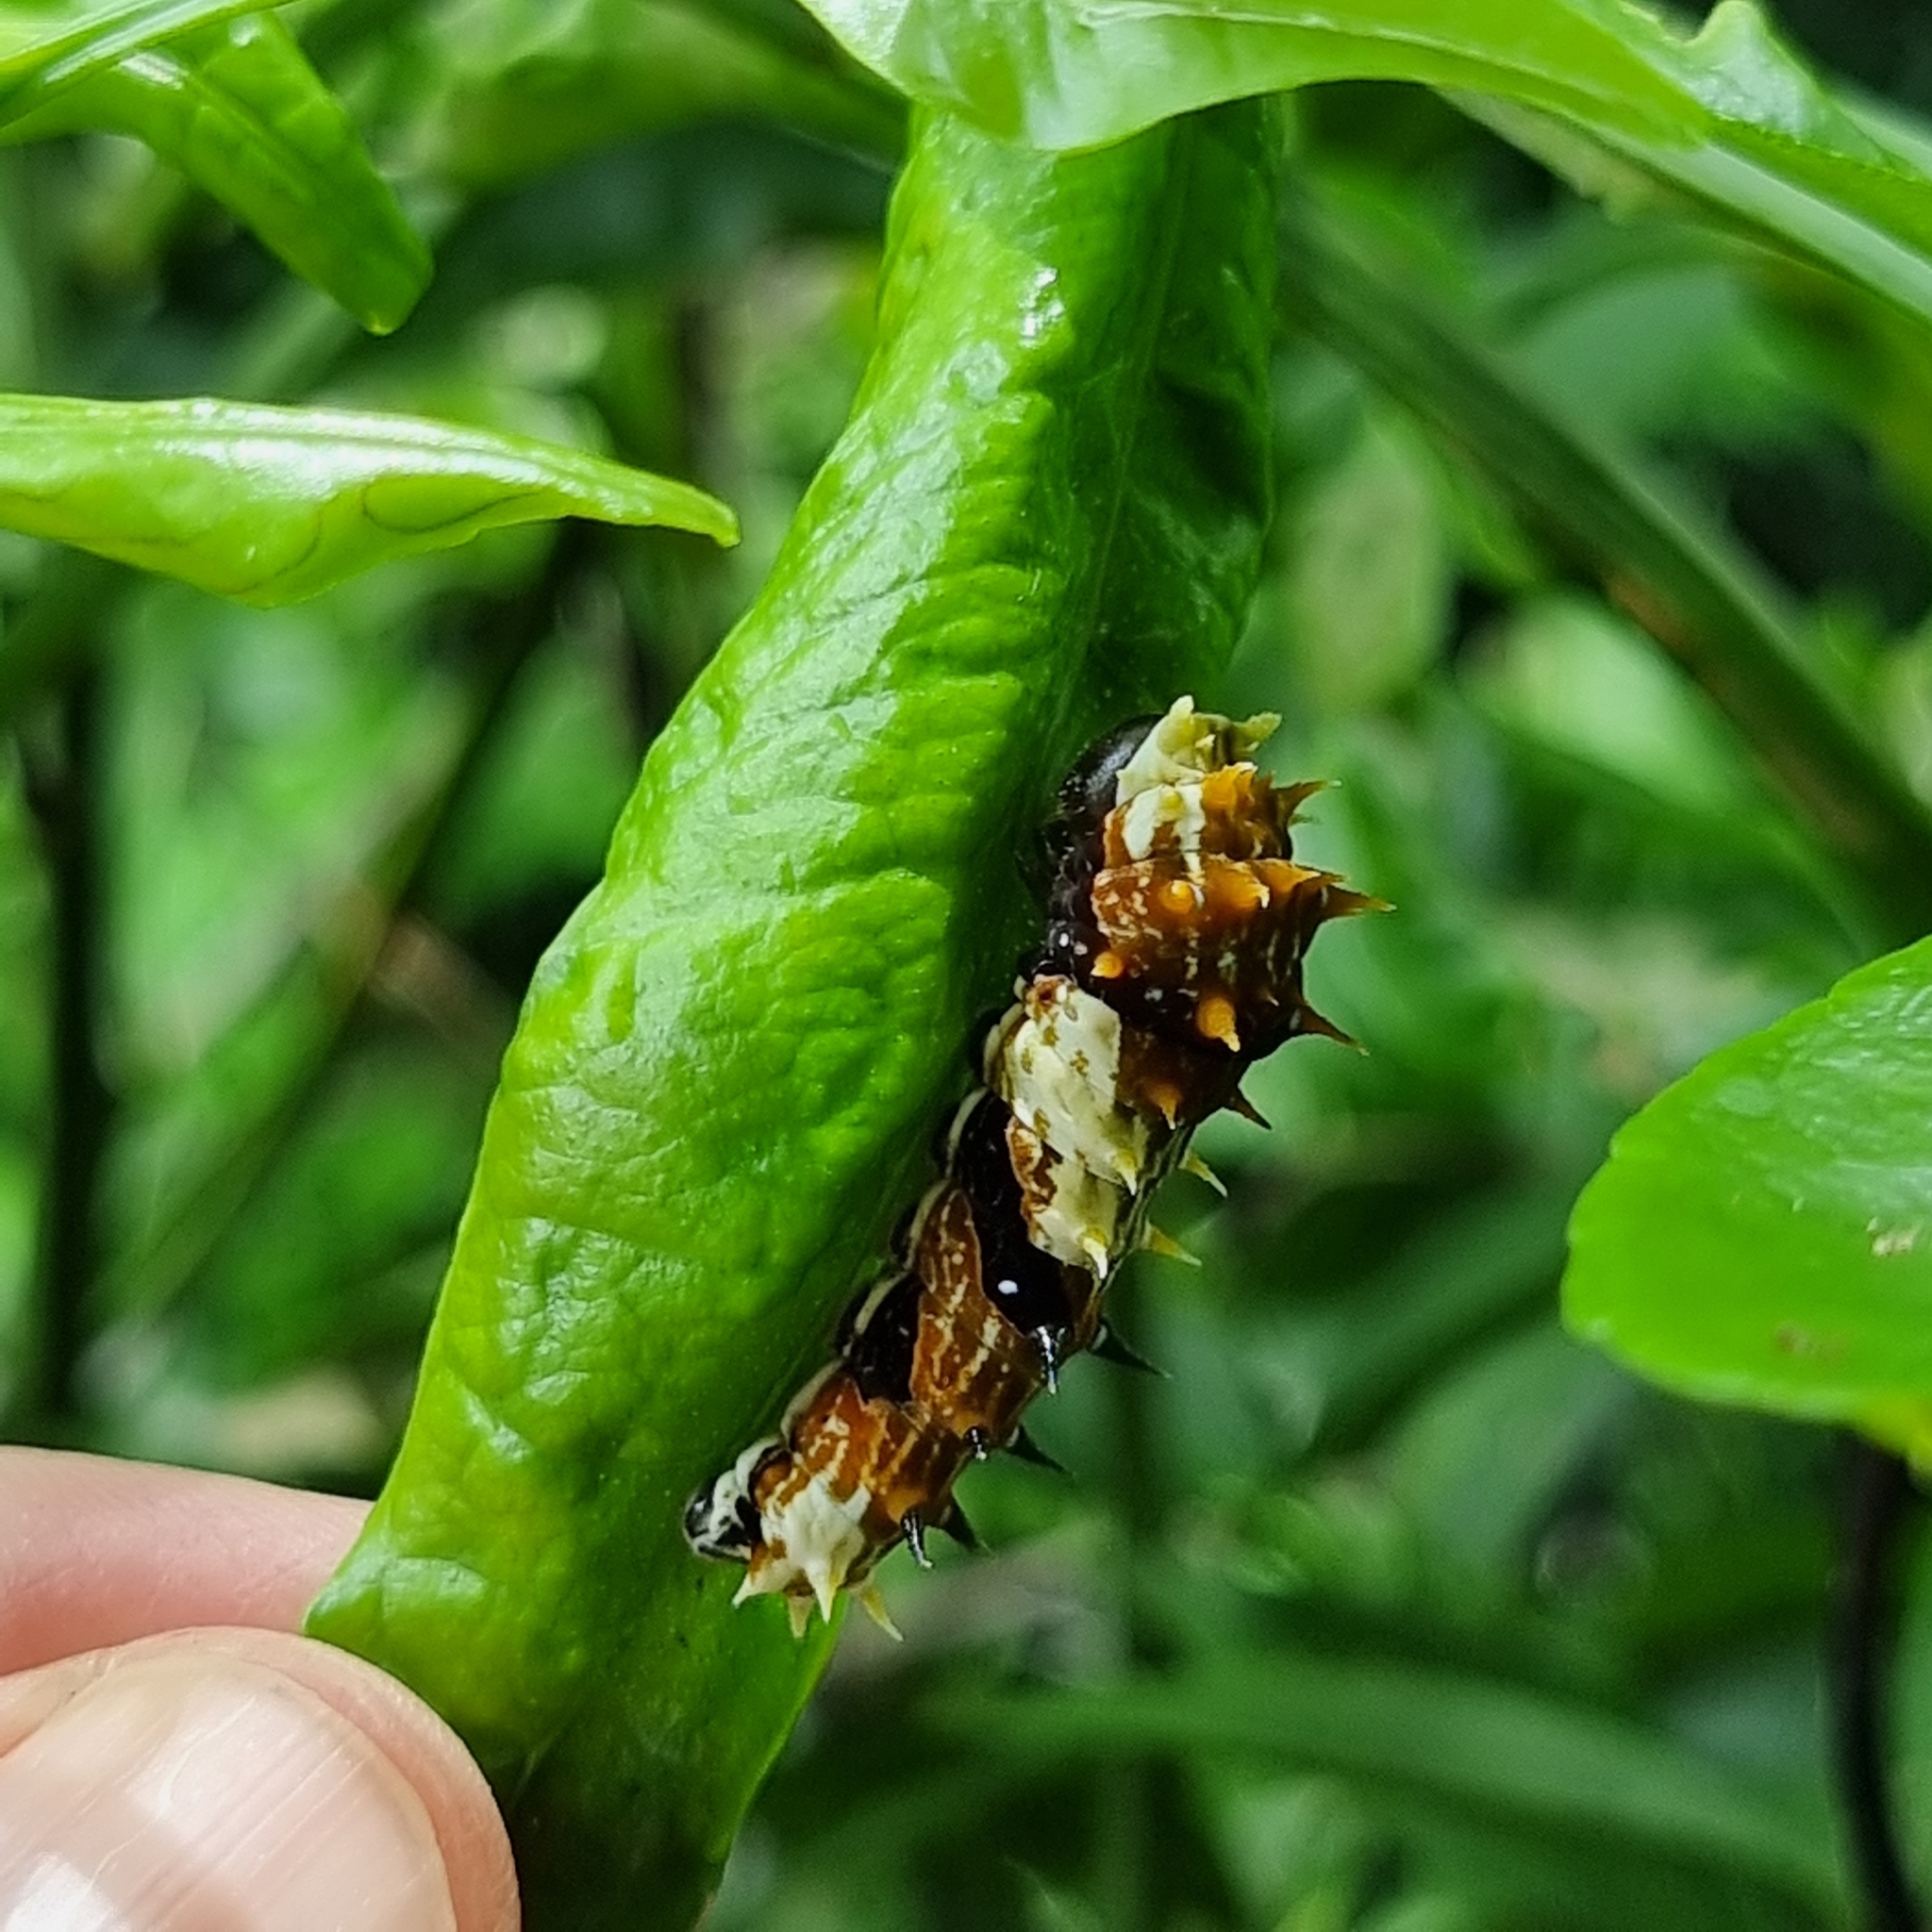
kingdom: Animalia
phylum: Arthropoda
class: Insecta
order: Lepidoptera
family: Papilionidae
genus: Papilio
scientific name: Papilio aegeus
